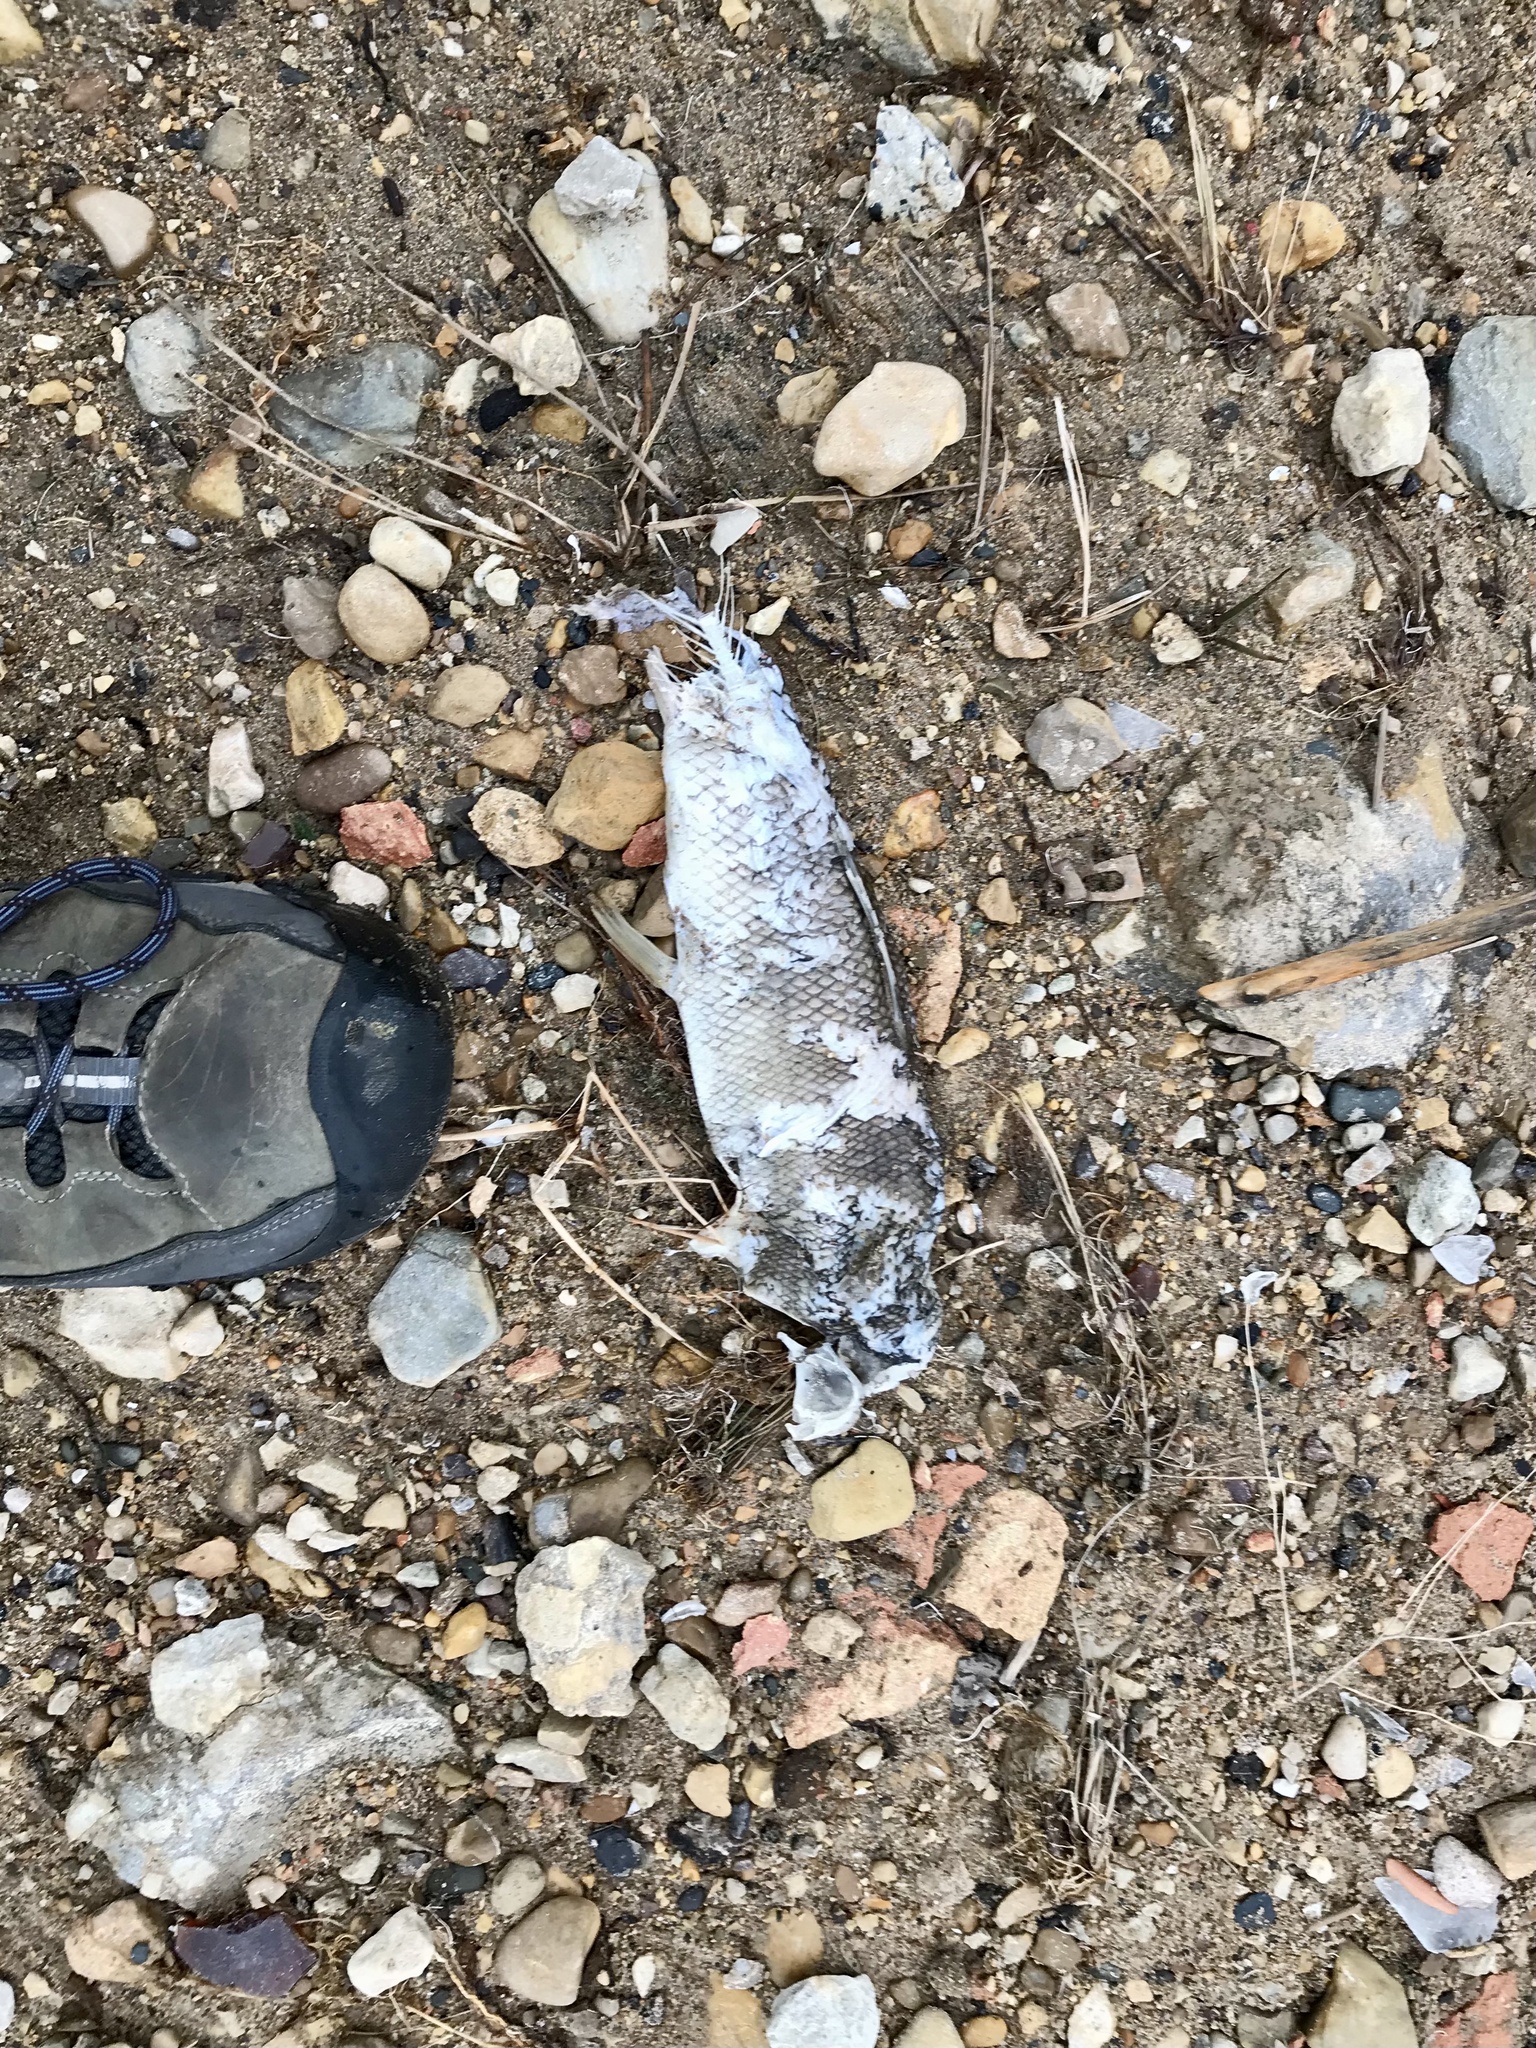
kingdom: Animalia
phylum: Chordata
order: Cypriniformes
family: Catostomidae
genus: Catostomus
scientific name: Catostomus commersonii
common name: White sucker
